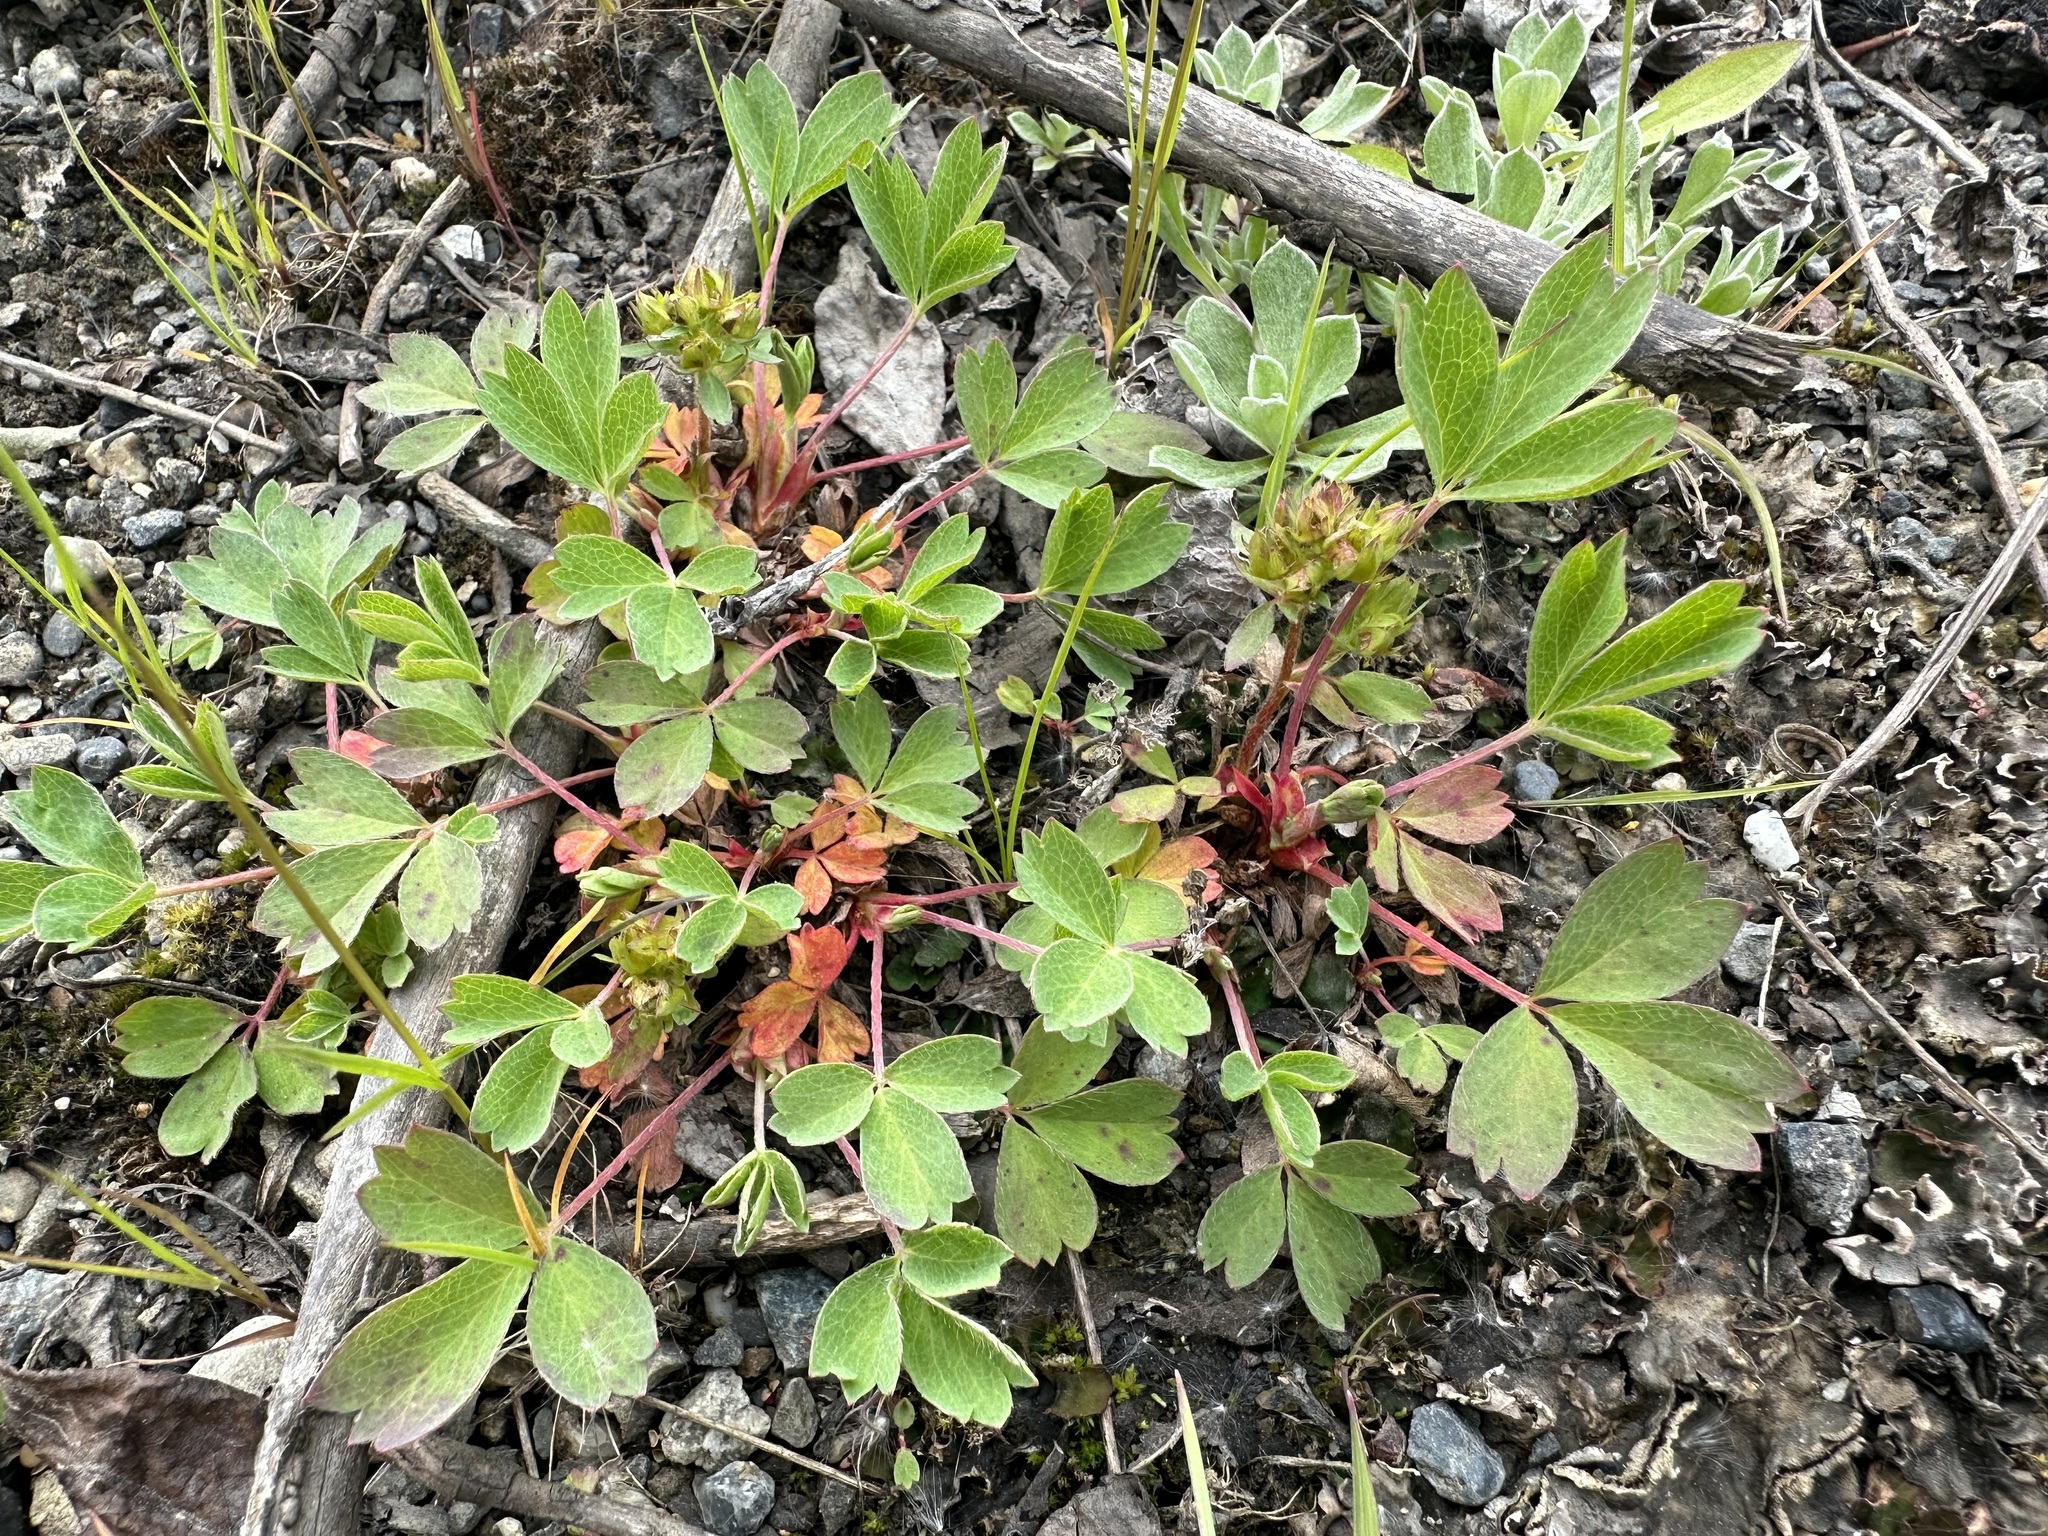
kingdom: Plantae
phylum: Tracheophyta
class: Magnoliopsida
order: Rosales
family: Rosaceae
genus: Sibbaldia
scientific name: Sibbaldia procumbens
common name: Creeping sibbaldia
